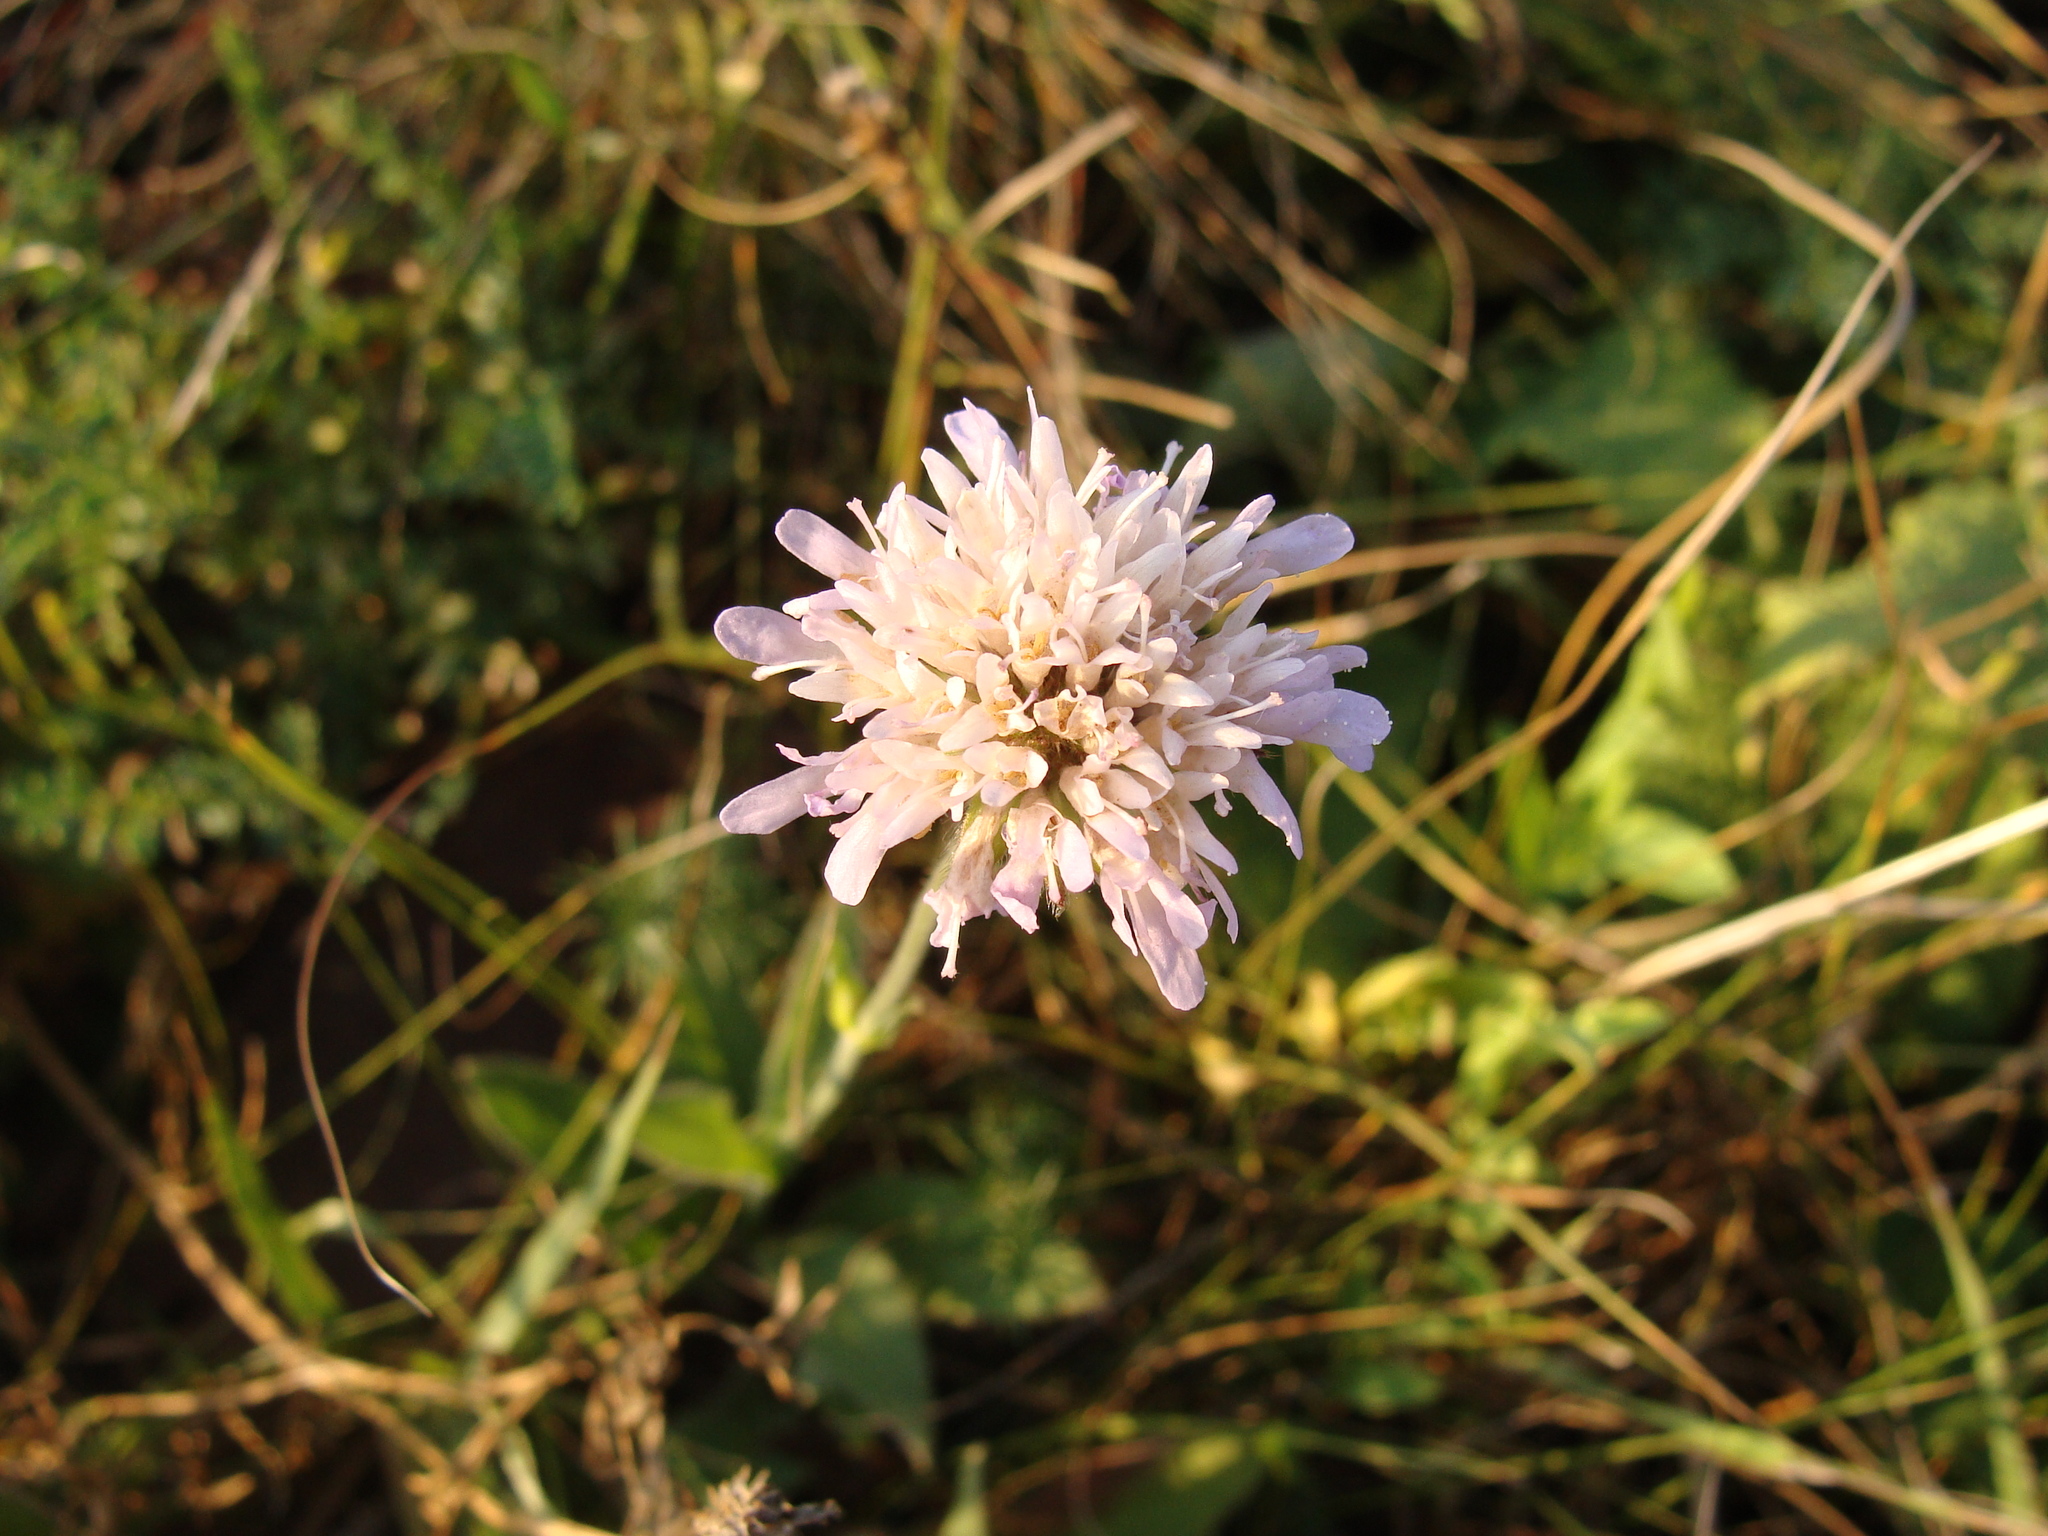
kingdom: Plantae
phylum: Tracheophyta
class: Magnoliopsida
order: Dipsacales
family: Caprifoliaceae
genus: Knautia
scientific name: Knautia arvensis
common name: Field scabiosa
